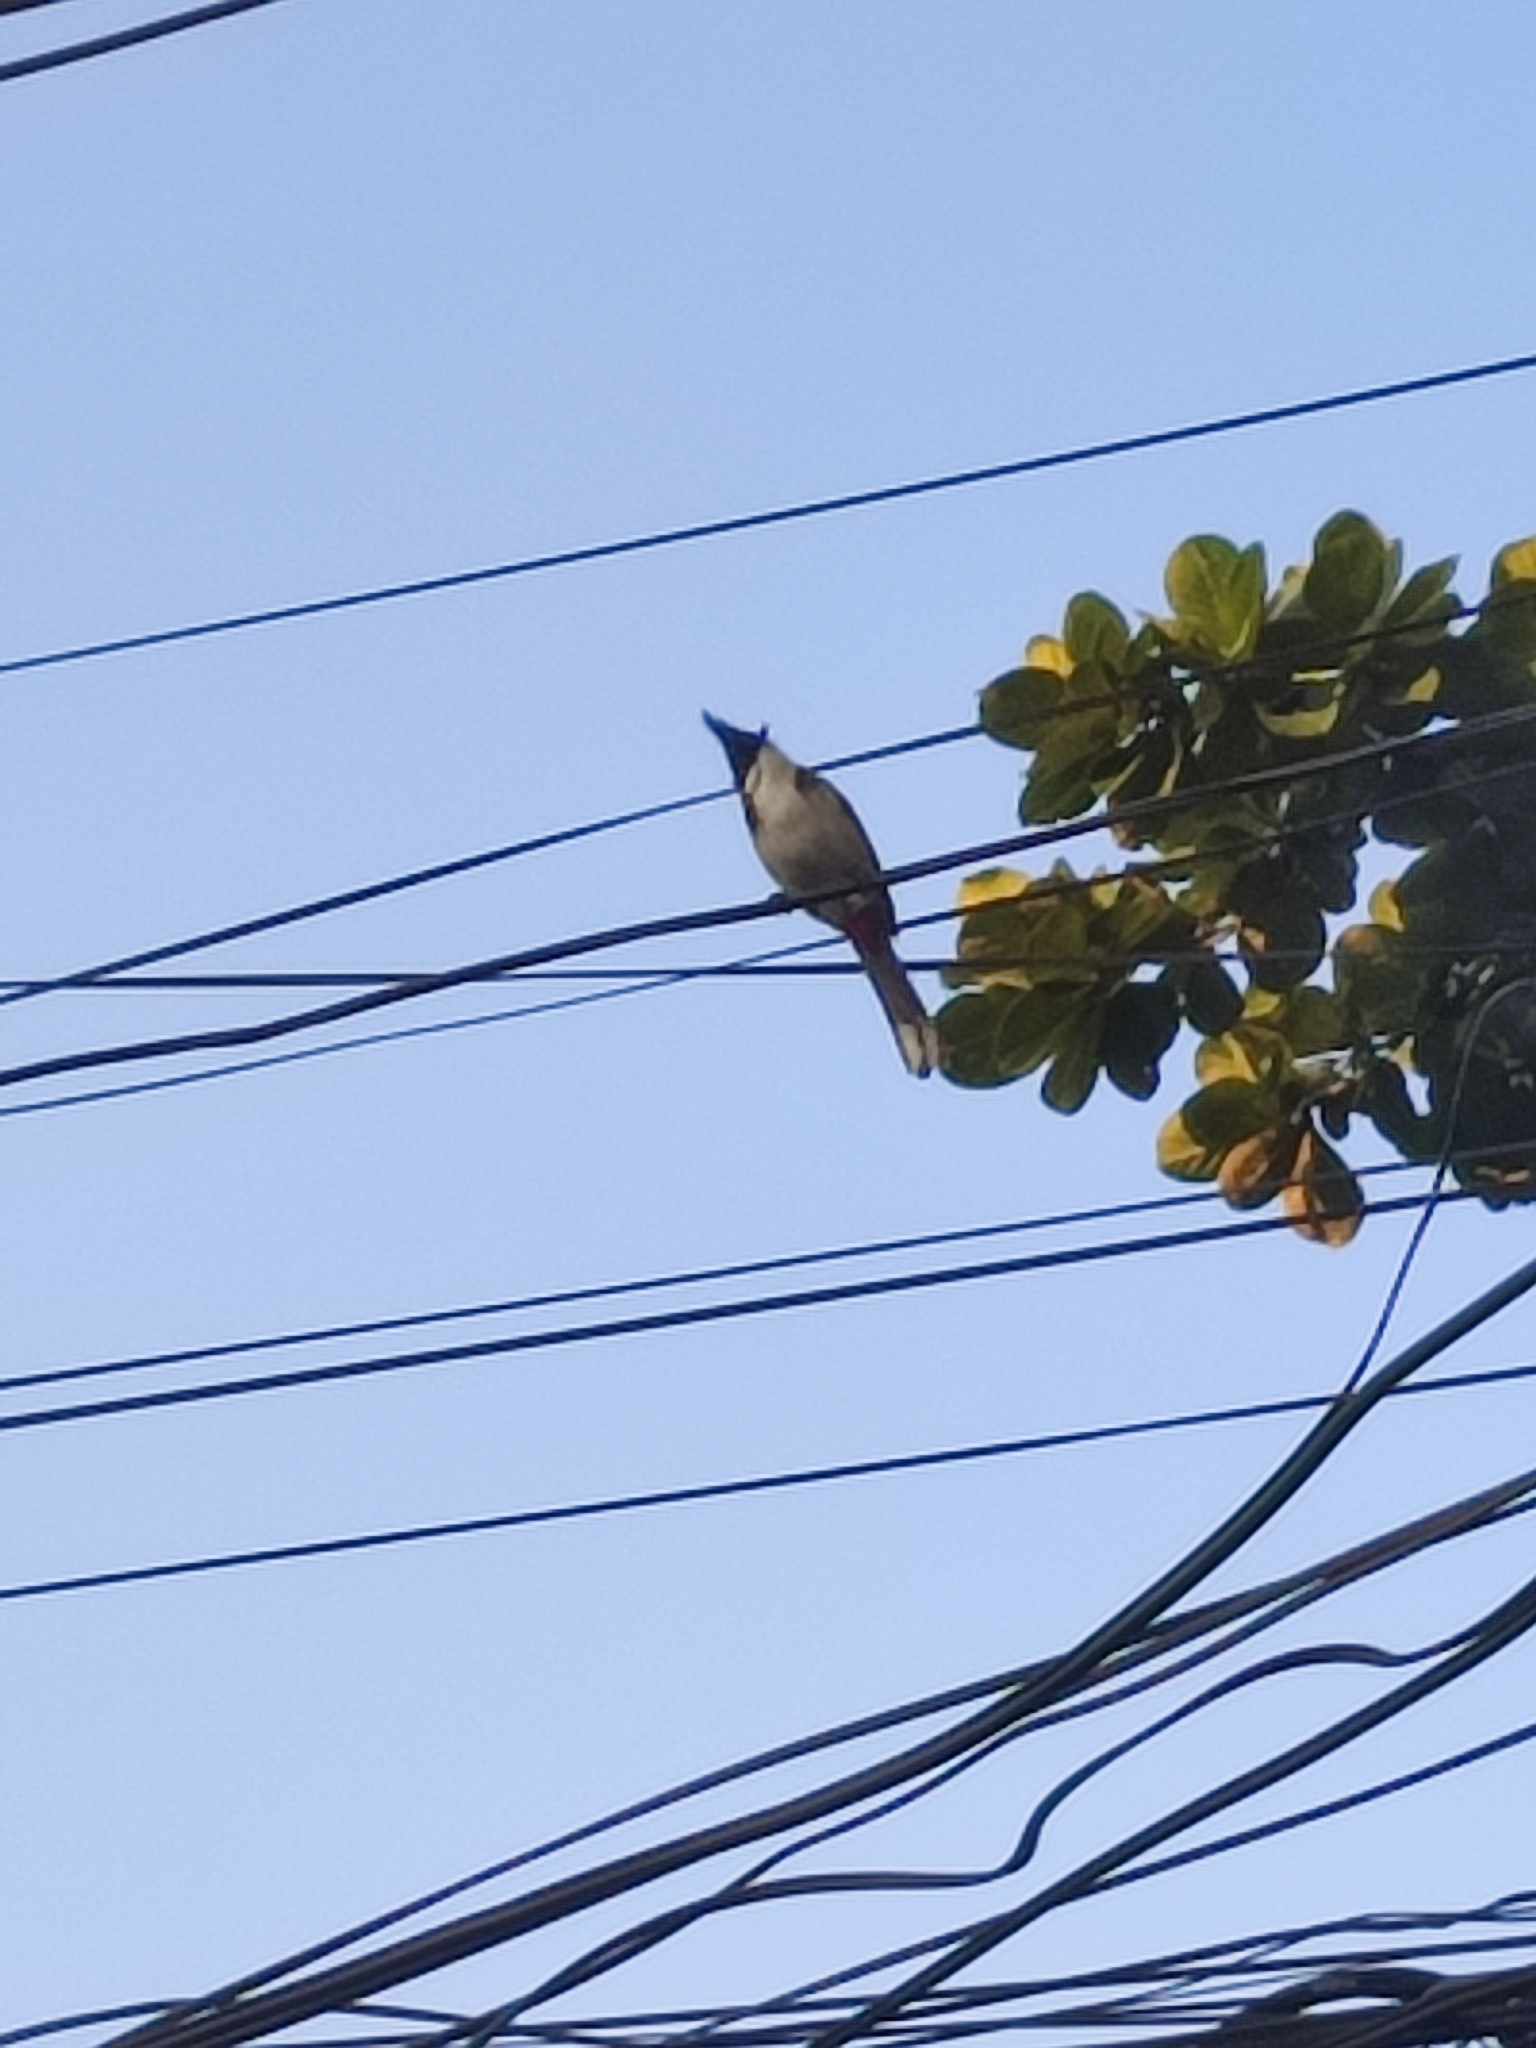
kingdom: Animalia
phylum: Chordata
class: Aves
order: Passeriformes
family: Pycnonotidae
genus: Pycnonotus
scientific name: Pycnonotus jocosus
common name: Red-whiskered bulbul
